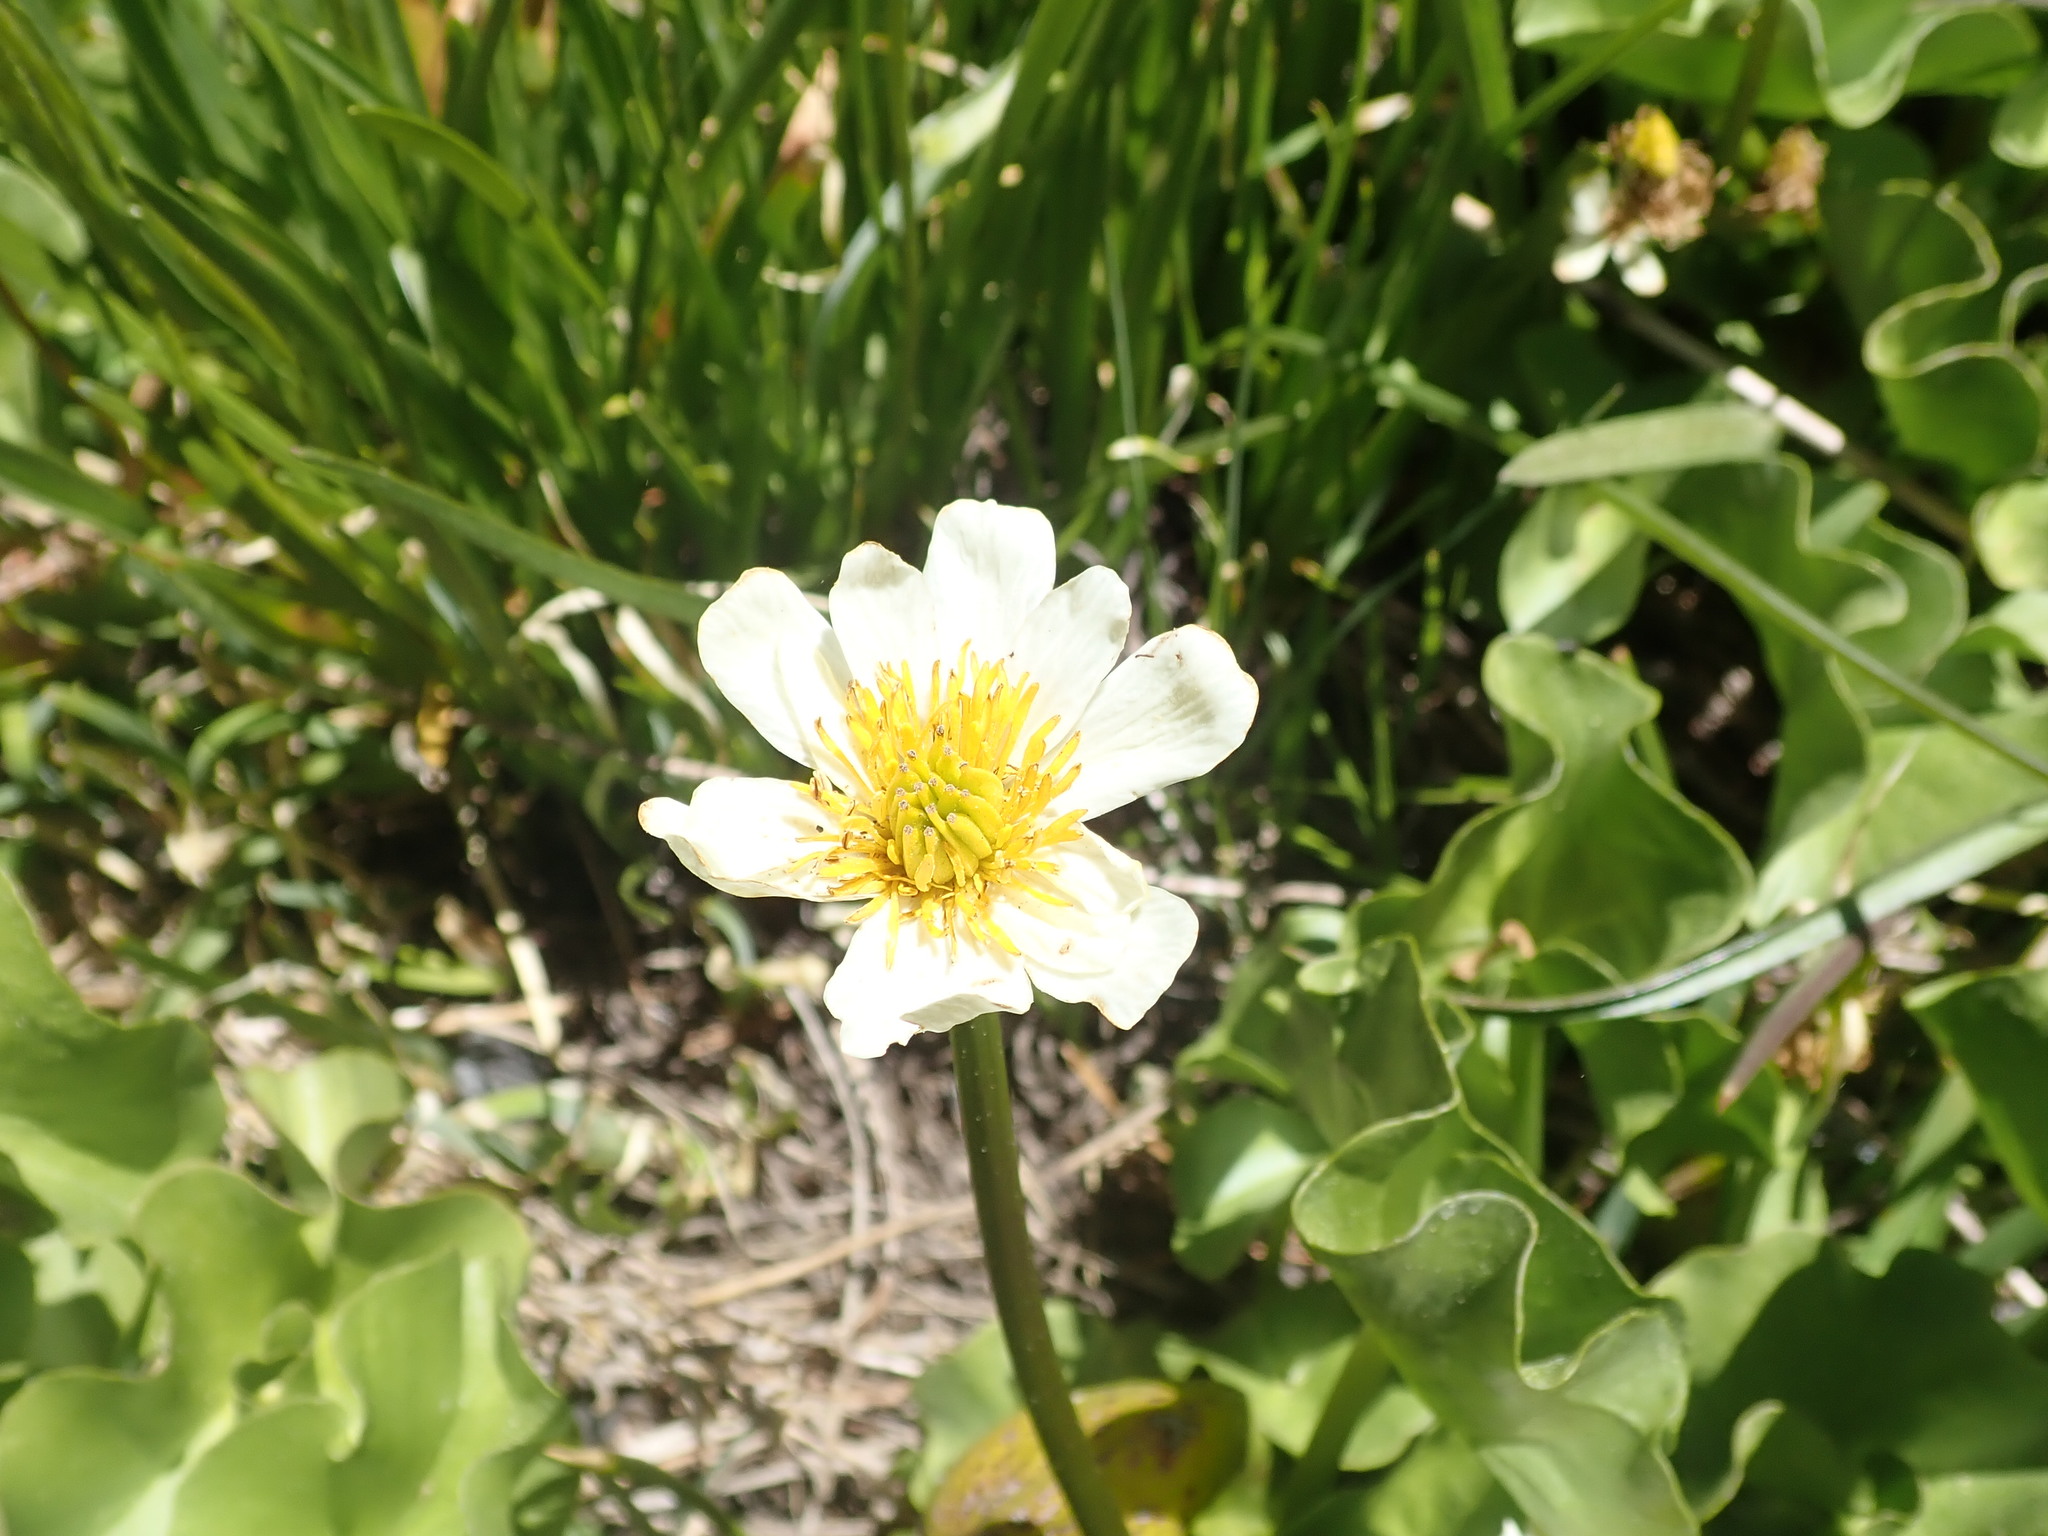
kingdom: Plantae
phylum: Tracheophyta
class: Magnoliopsida
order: Ranunculales
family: Ranunculaceae
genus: Caltha
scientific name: Caltha leptosepala
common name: Elkslip
